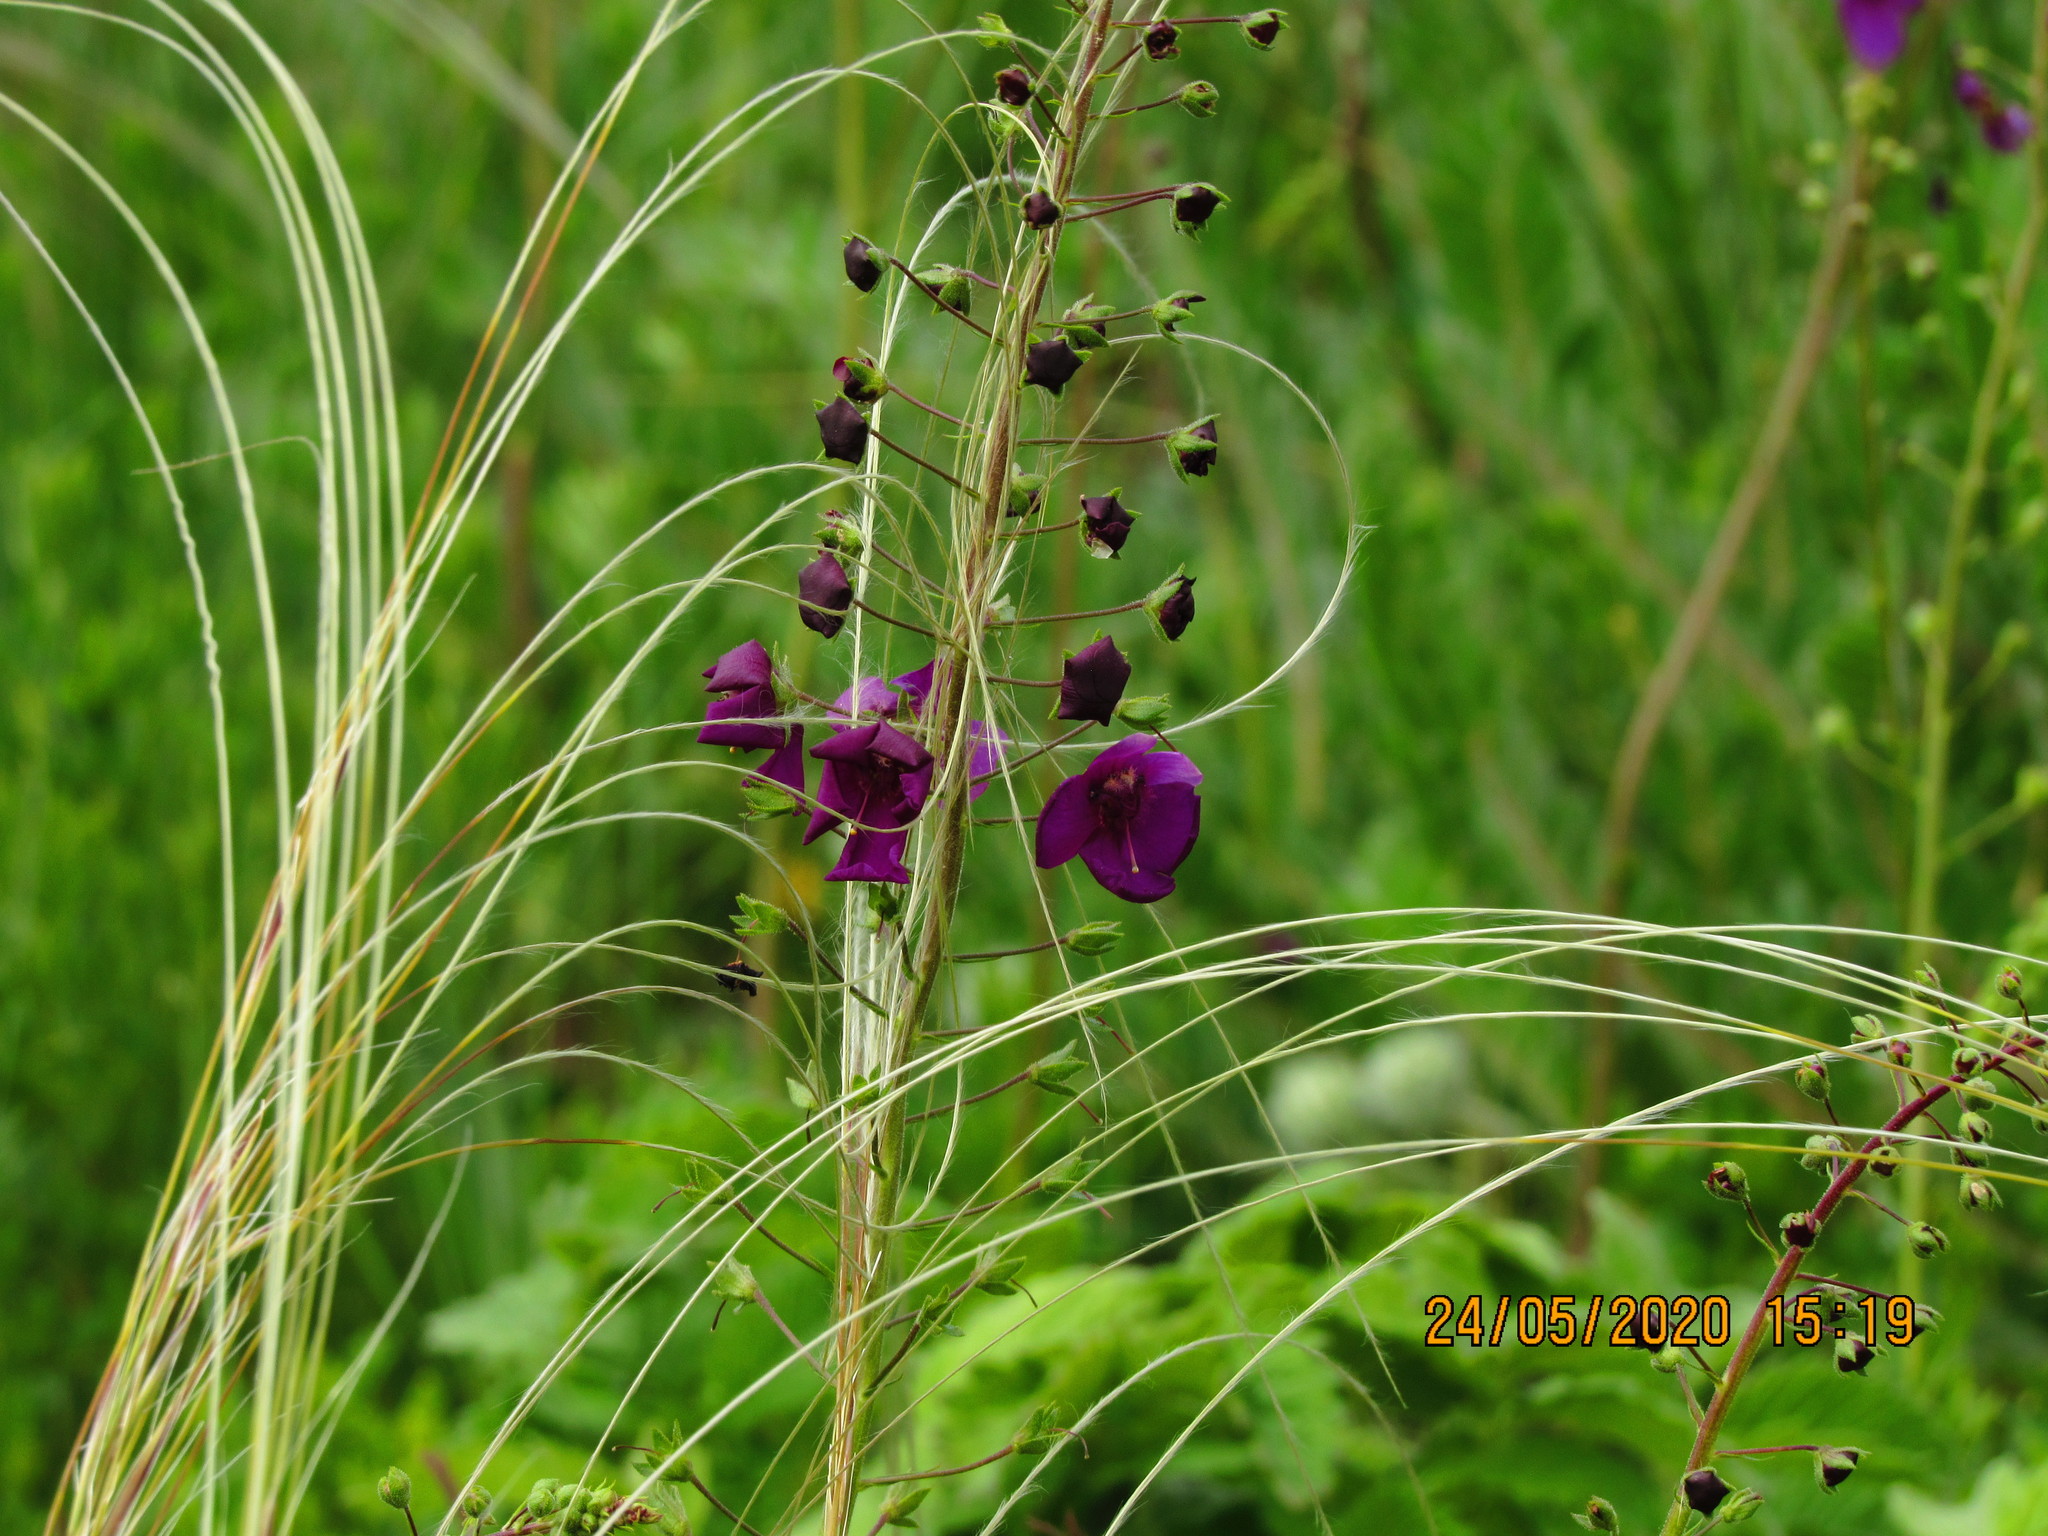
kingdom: Plantae
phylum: Tracheophyta
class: Magnoliopsida
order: Lamiales
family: Scrophulariaceae
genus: Verbascum
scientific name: Verbascum phoeniceum
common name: Purple mullein
